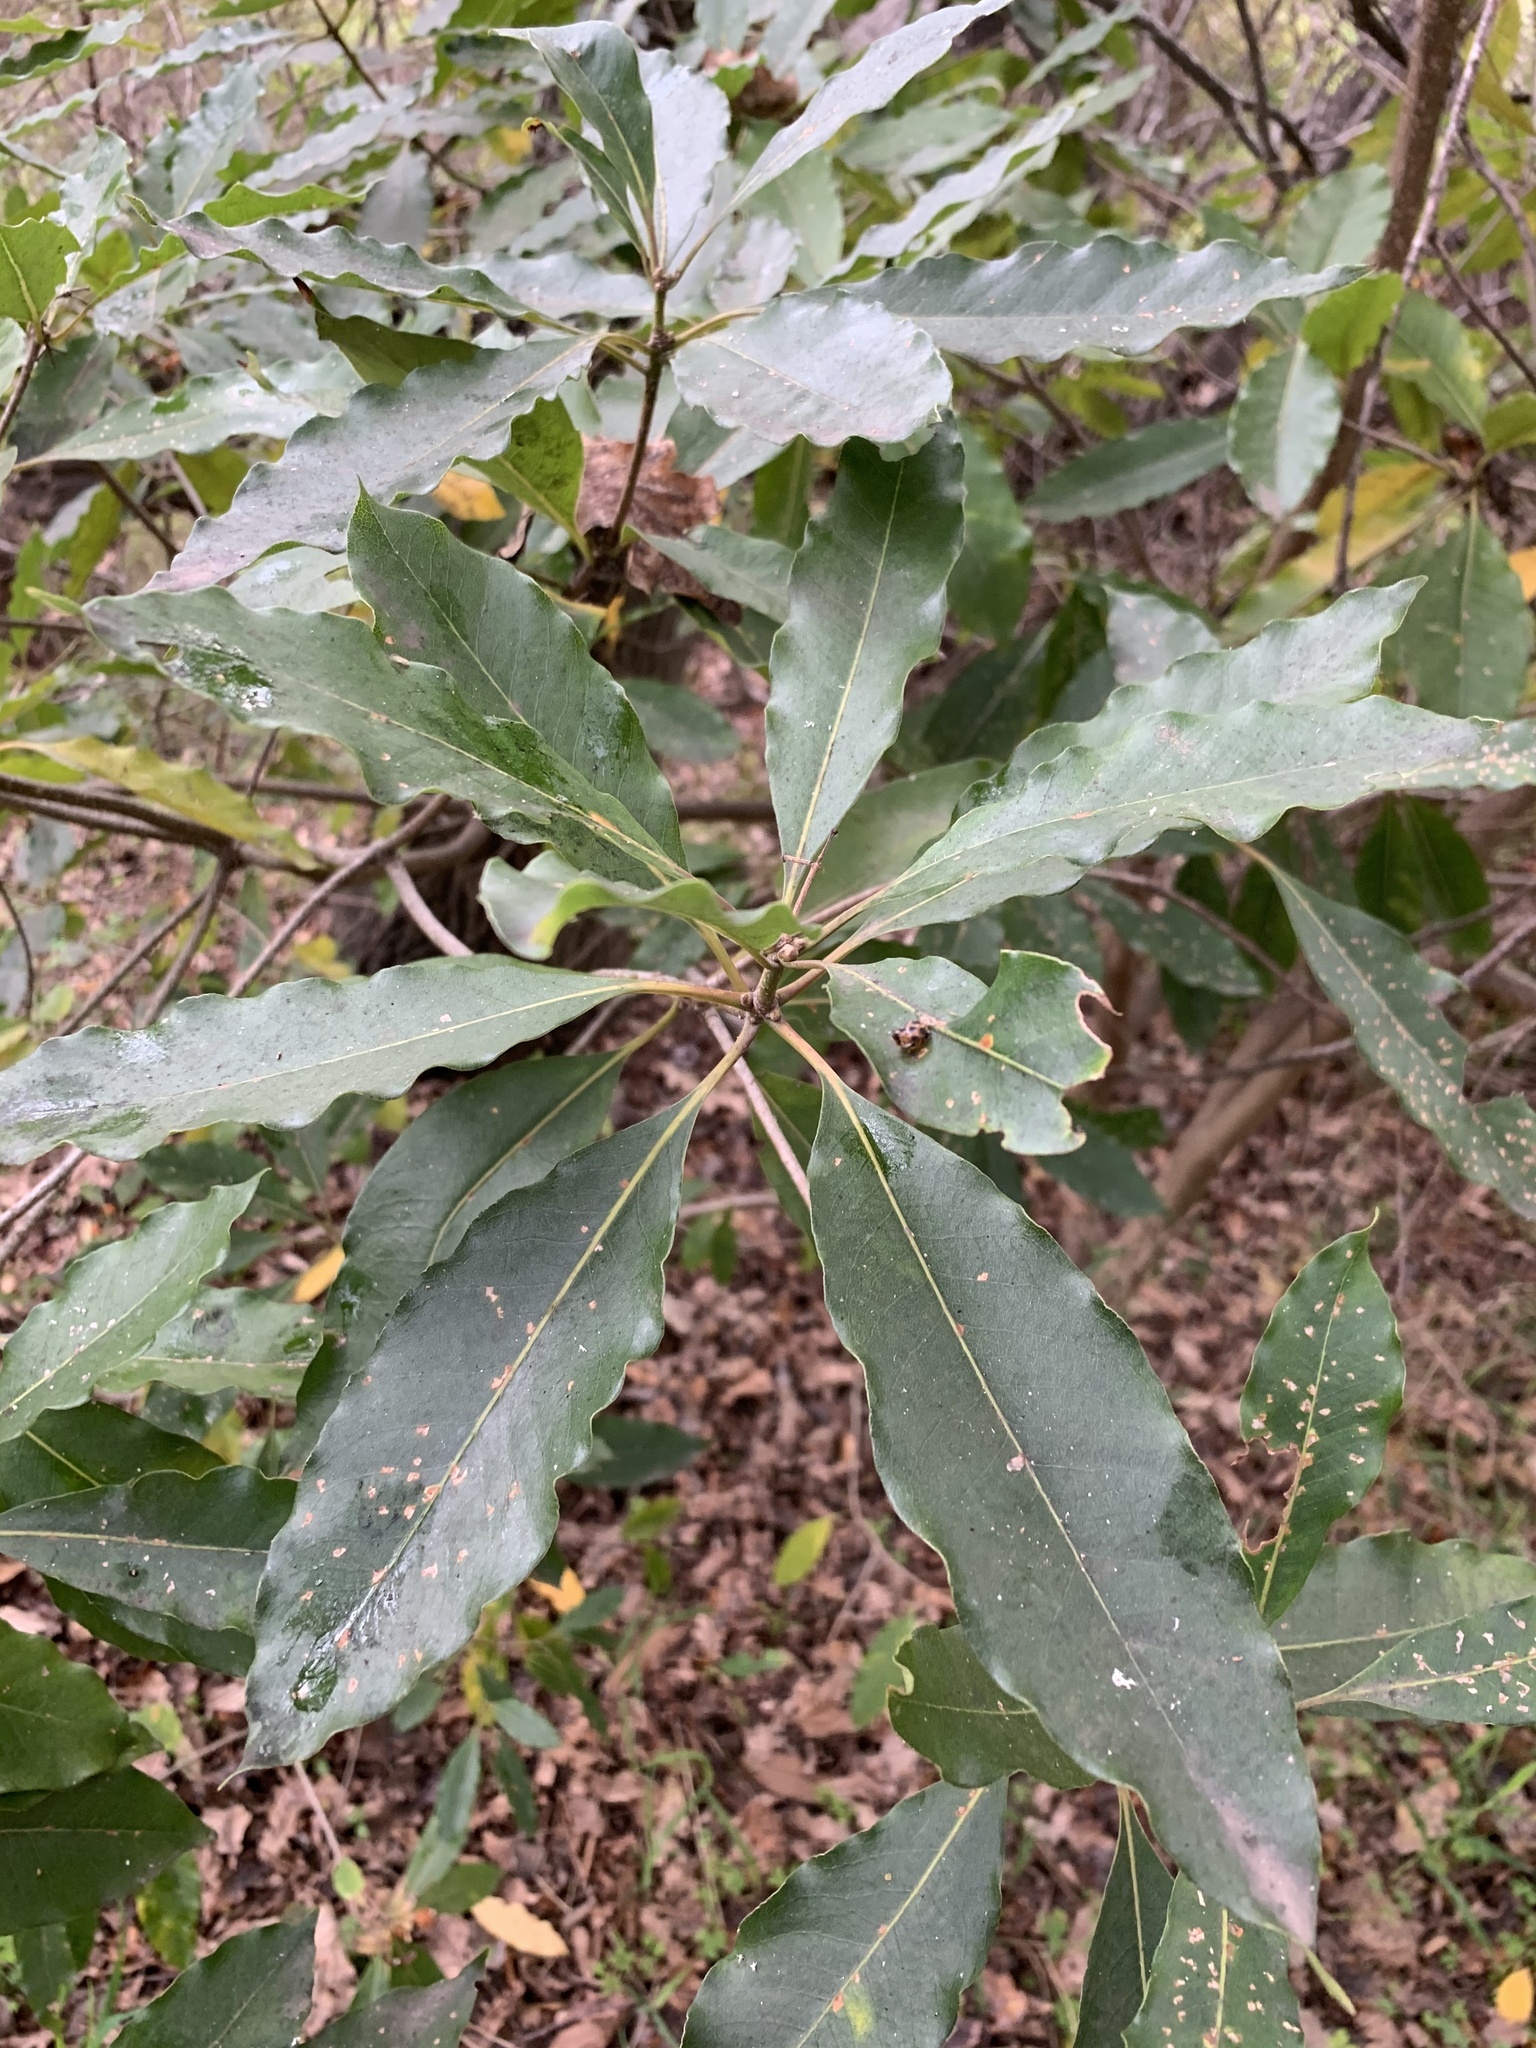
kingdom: Plantae
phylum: Tracheophyta
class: Magnoliopsida
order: Apiales
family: Pittosporaceae
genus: Pittosporum
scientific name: Pittosporum undulatum
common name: Australian cheesewood
